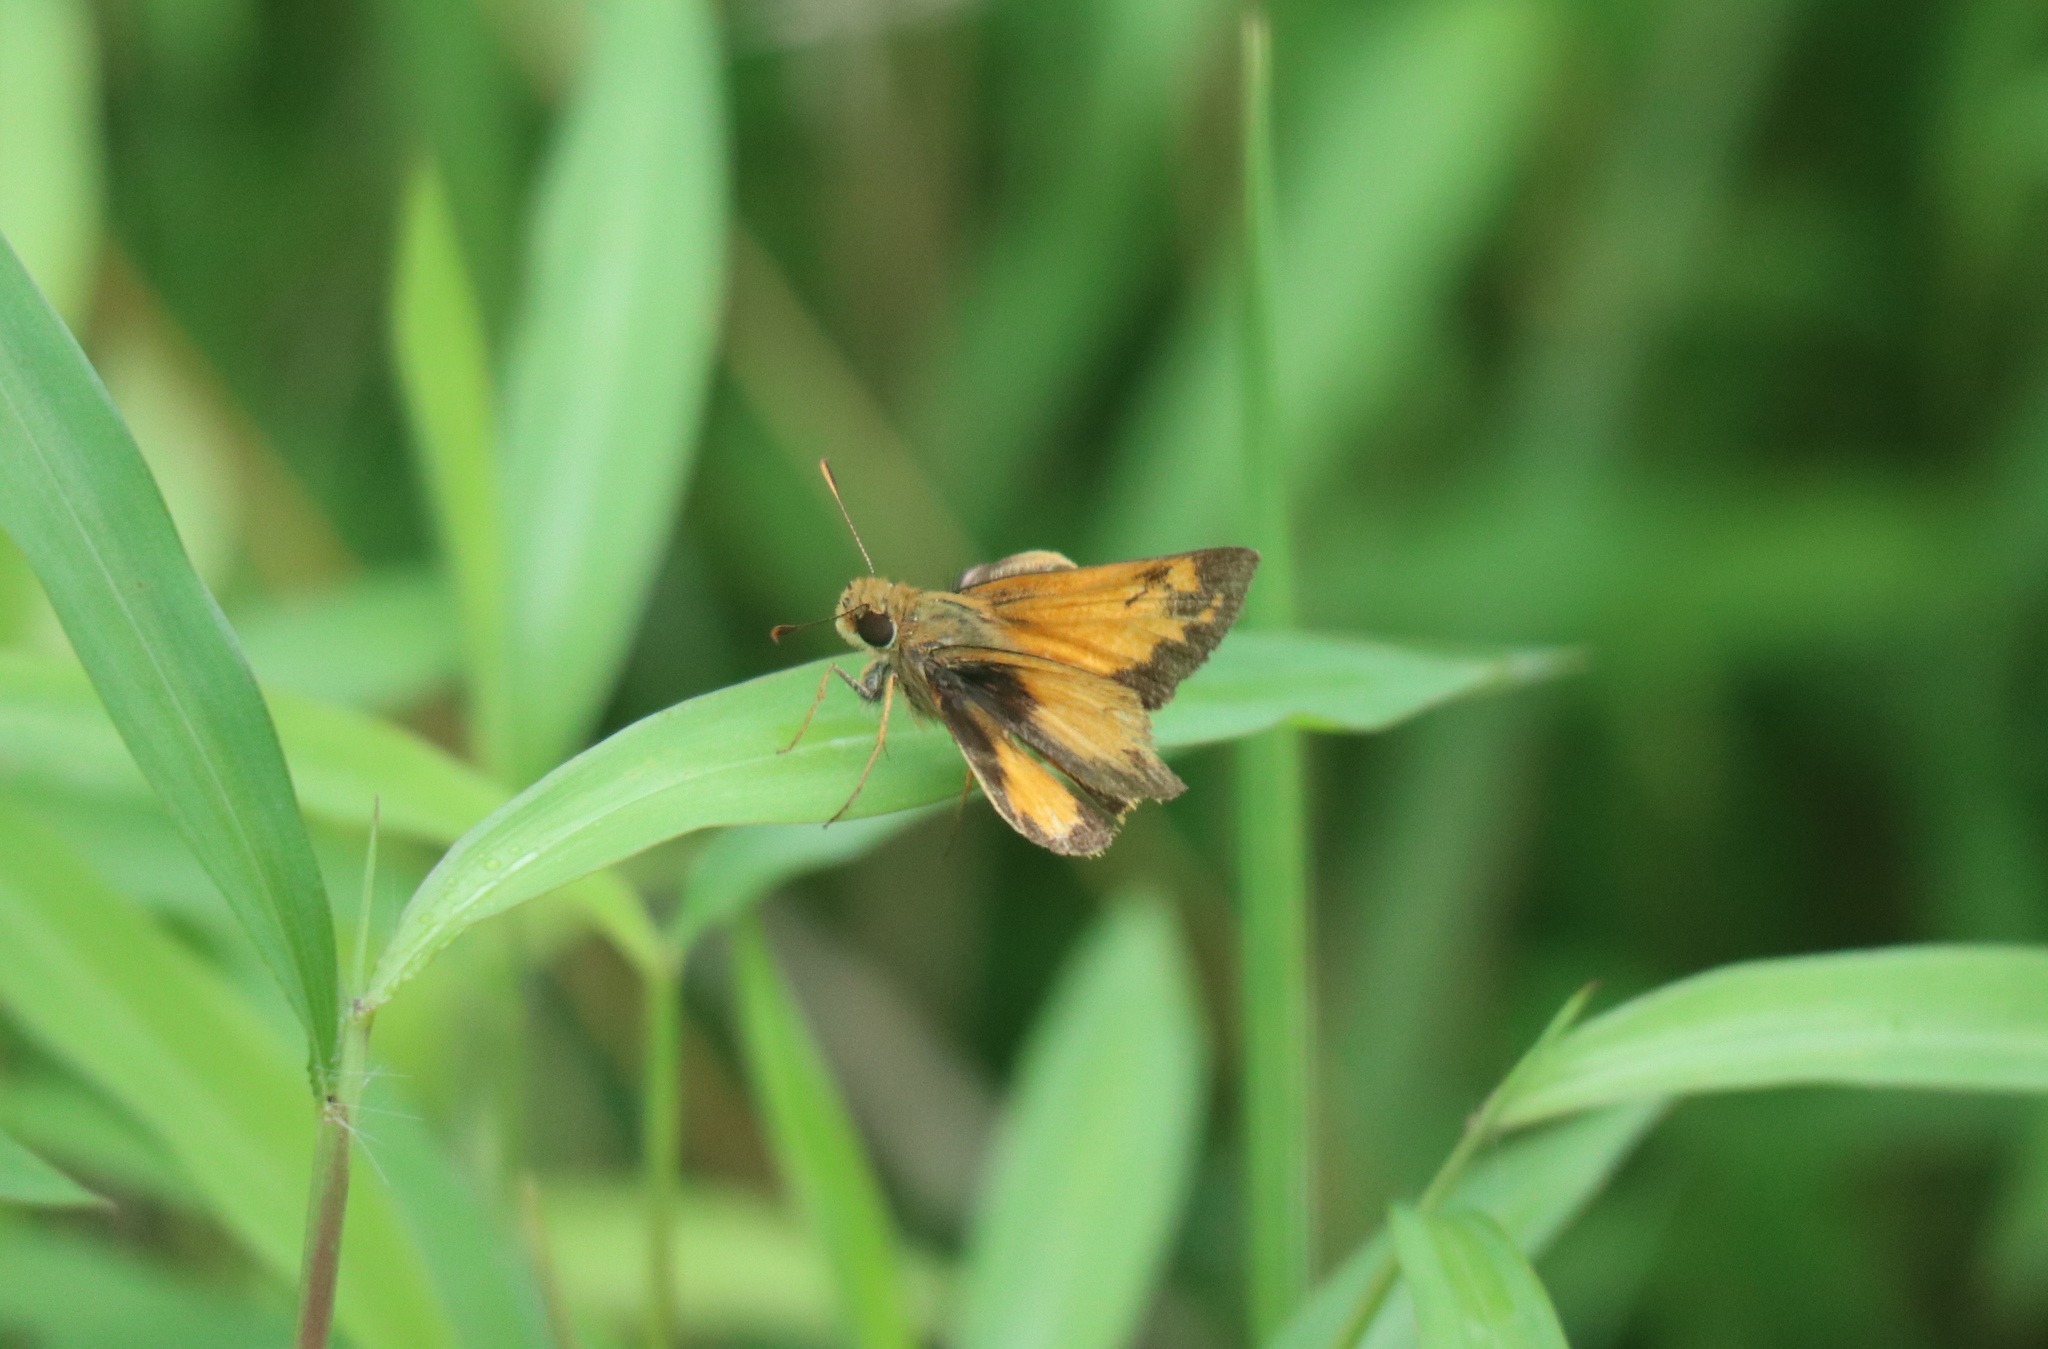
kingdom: Animalia
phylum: Arthropoda
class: Insecta
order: Lepidoptera
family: Hesperiidae
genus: Lon
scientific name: Lon zabulon
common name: Zabulon skipper
